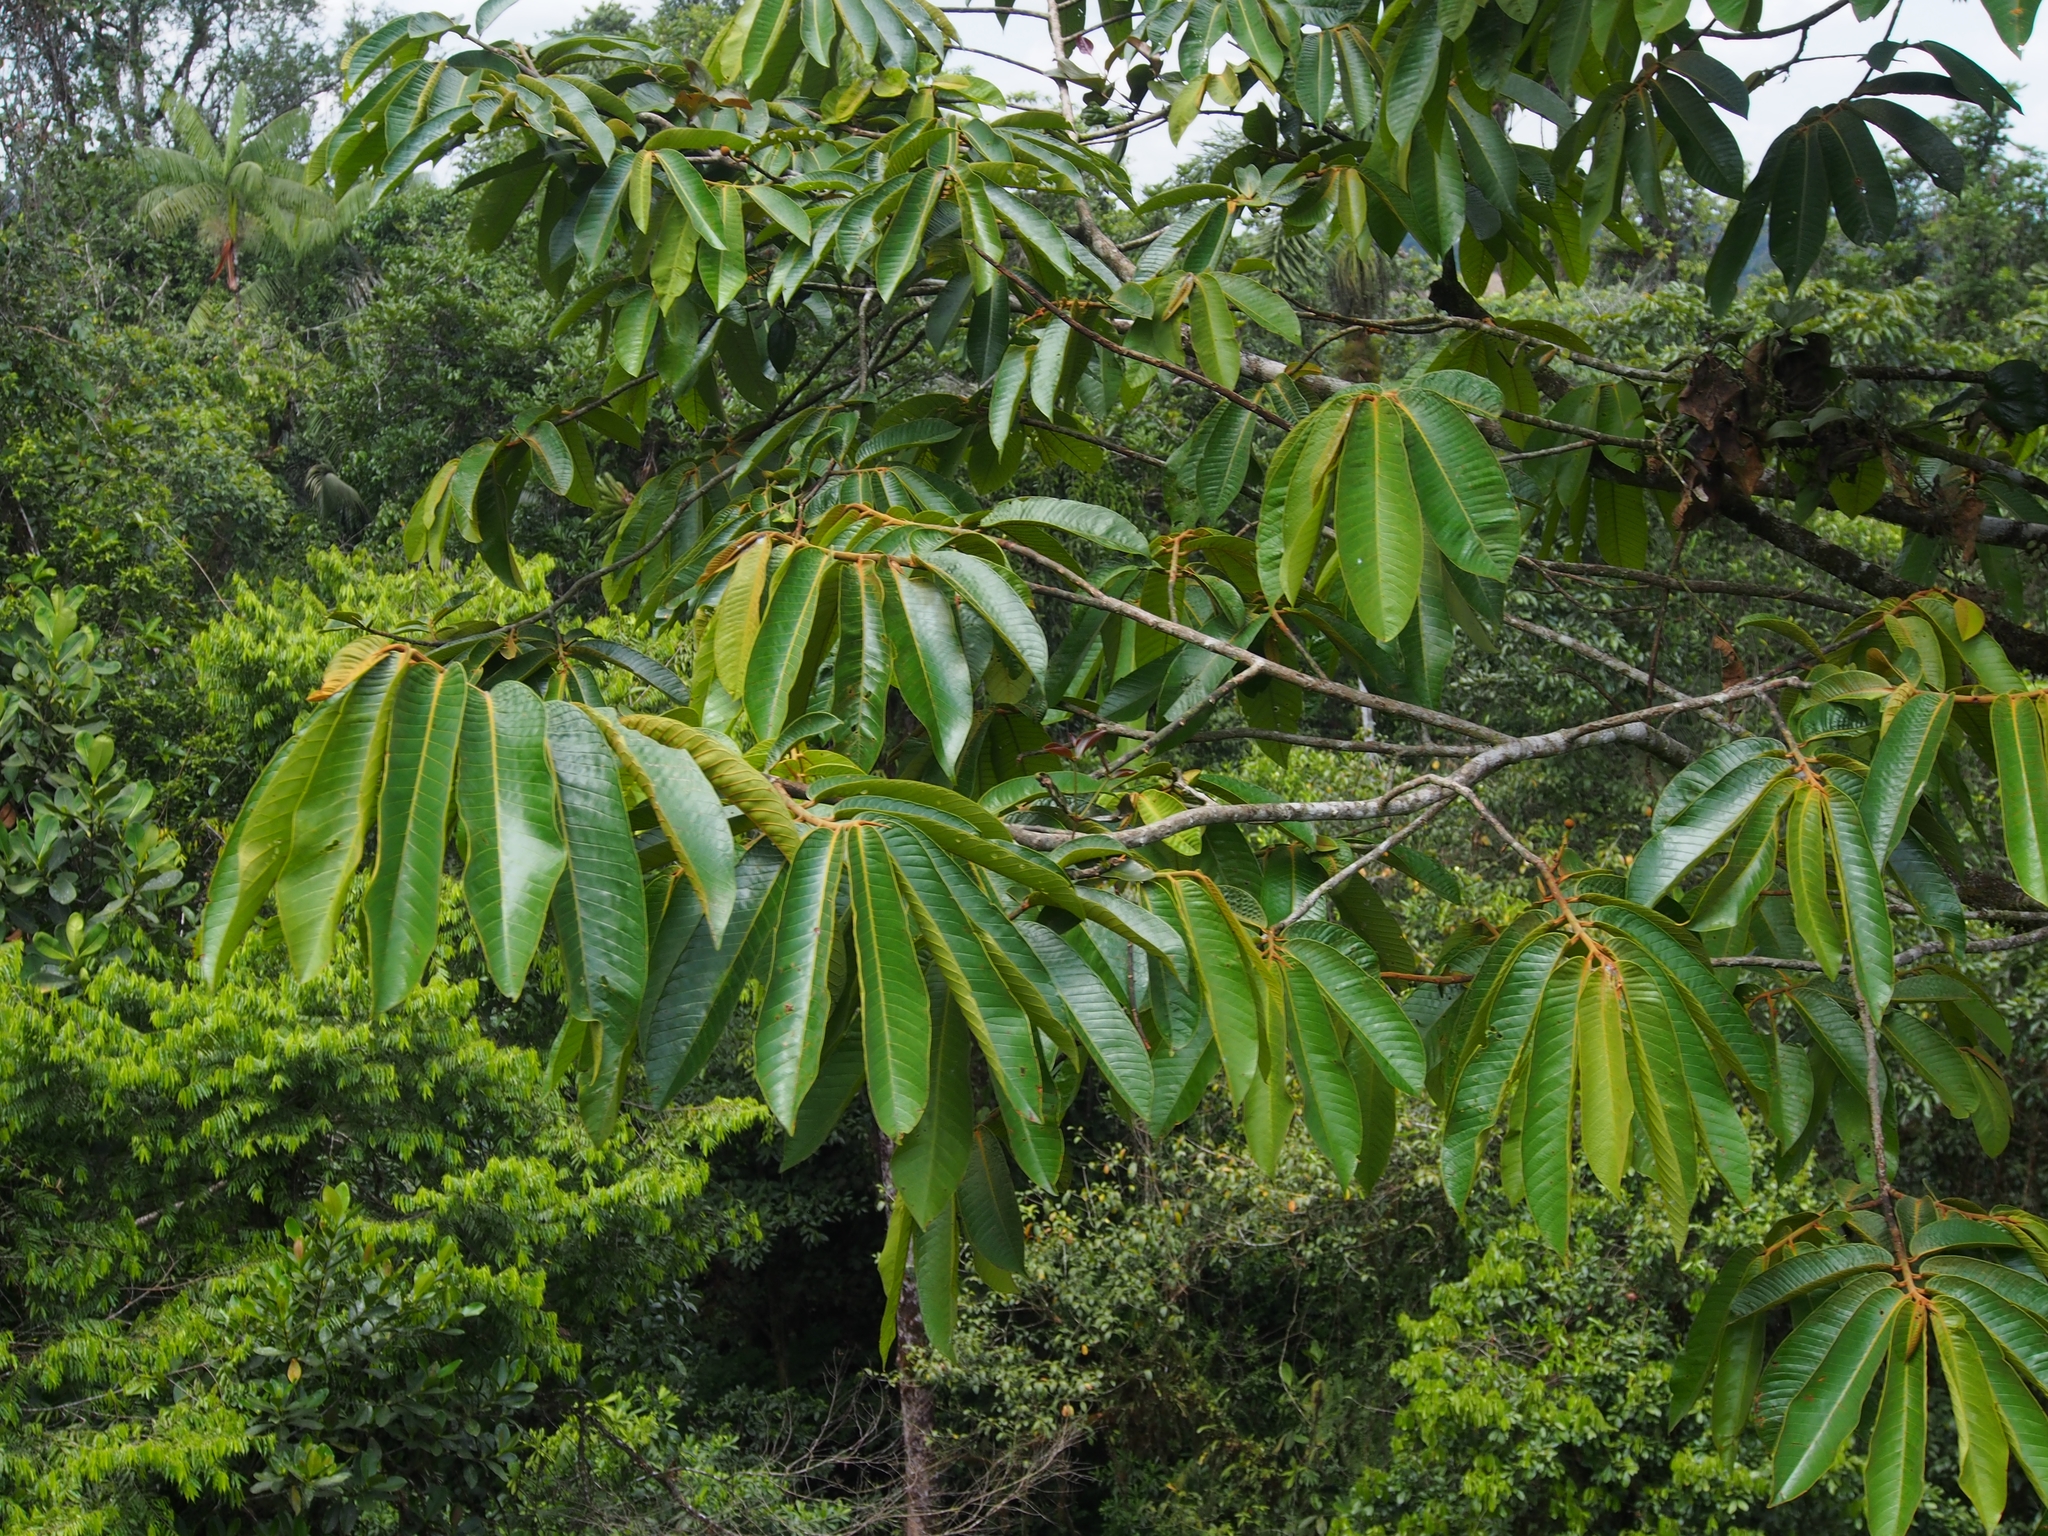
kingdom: Plantae
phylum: Tracheophyta
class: Magnoliopsida
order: Magnoliales
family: Myristicaceae
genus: Virola
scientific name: Virola koschnyi
